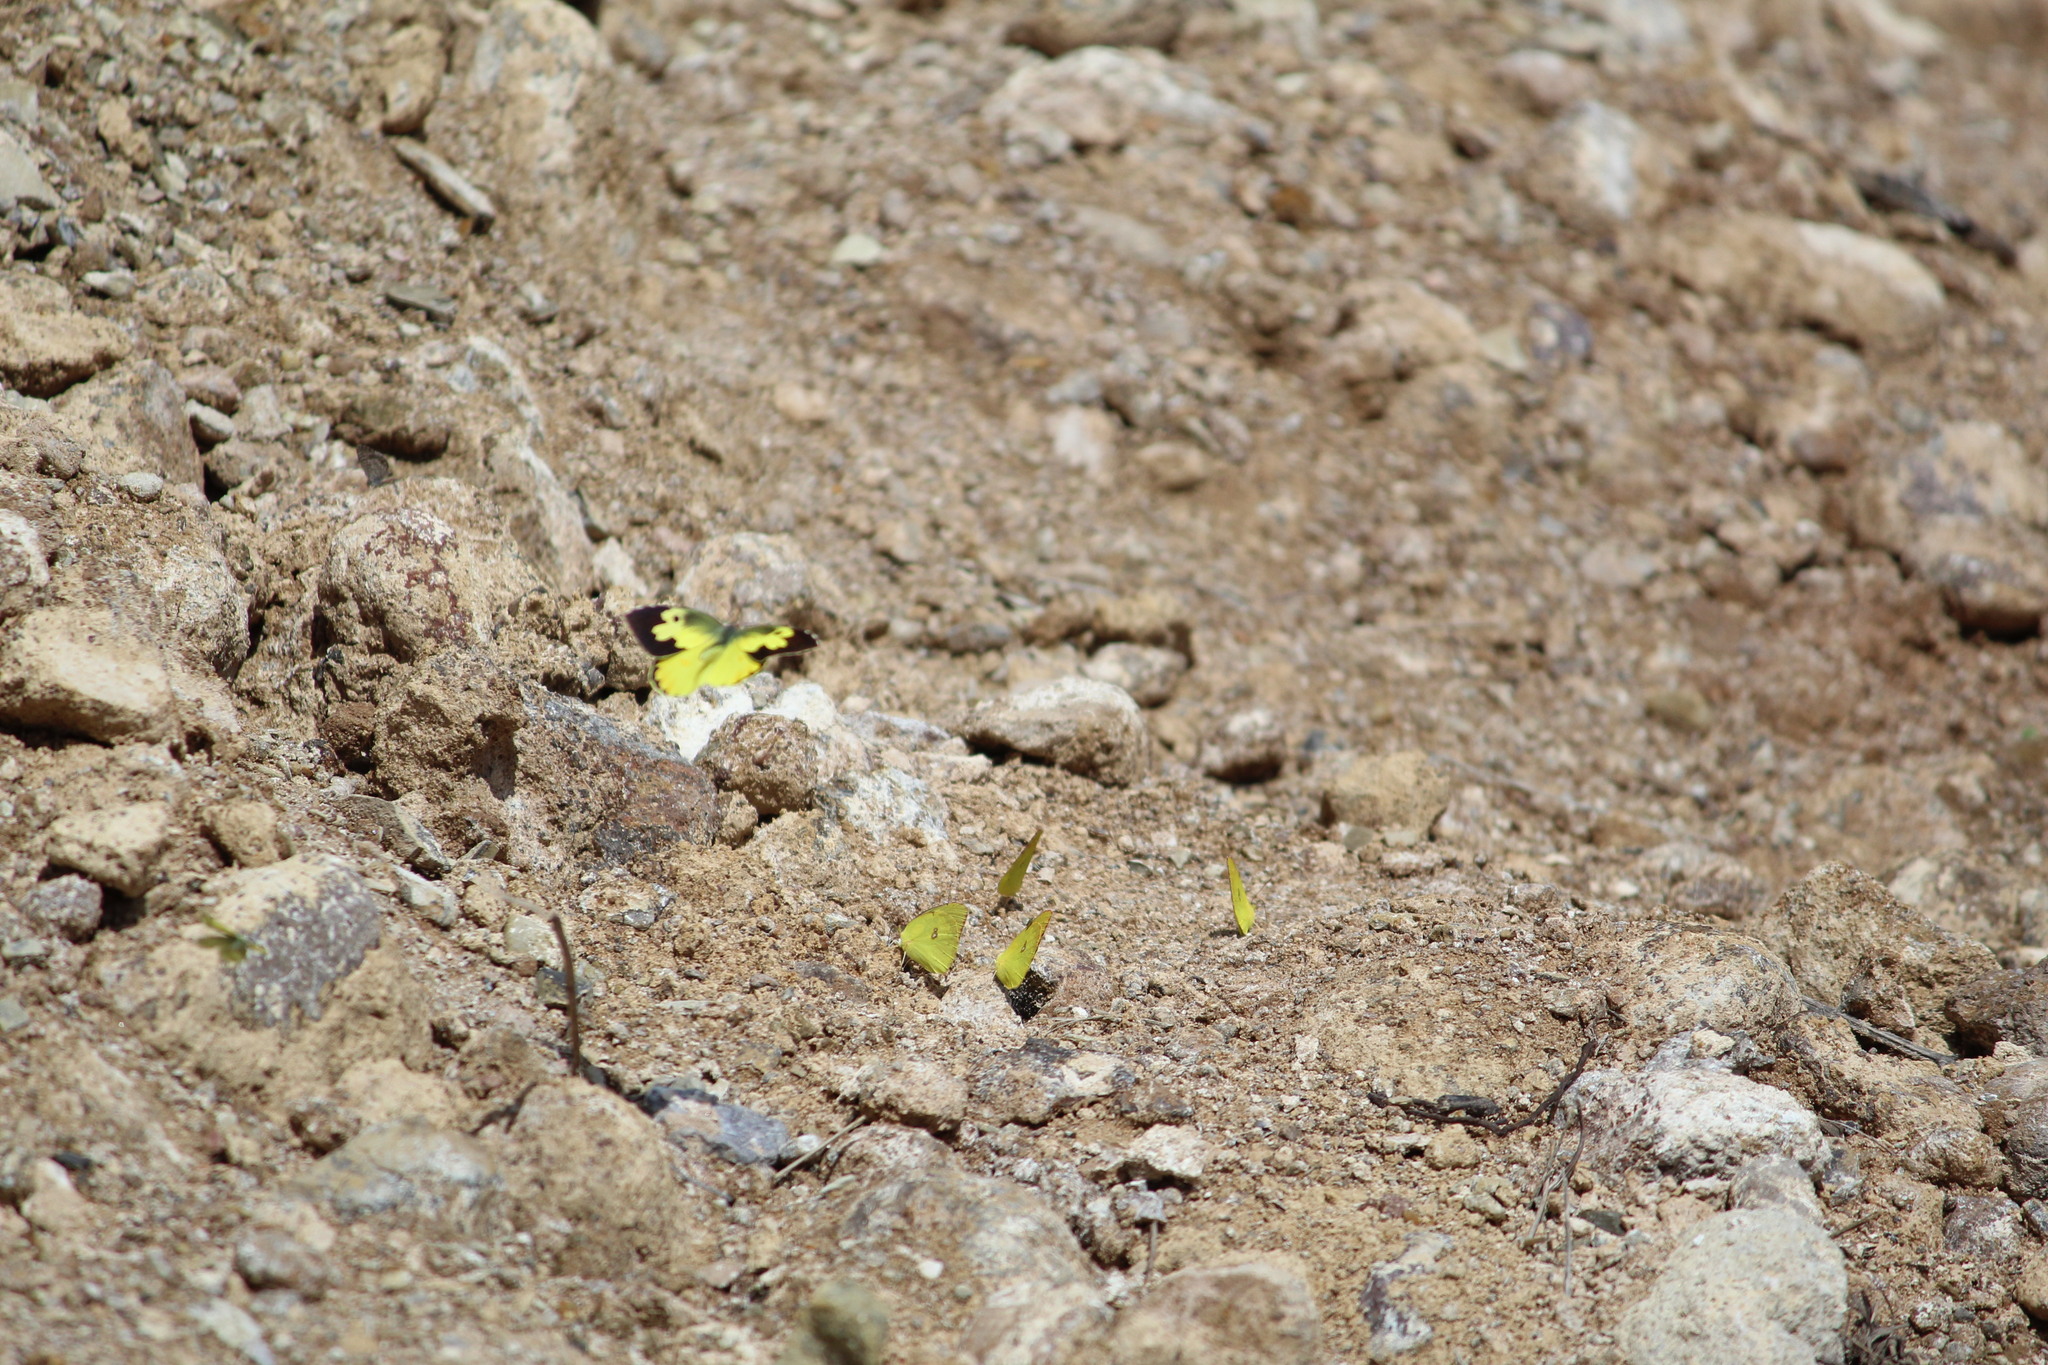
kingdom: Animalia
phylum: Arthropoda
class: Insecta
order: Lepidoptera
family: Pieridae
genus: Zerene
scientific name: Zerene cesonia
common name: Southern dogface
